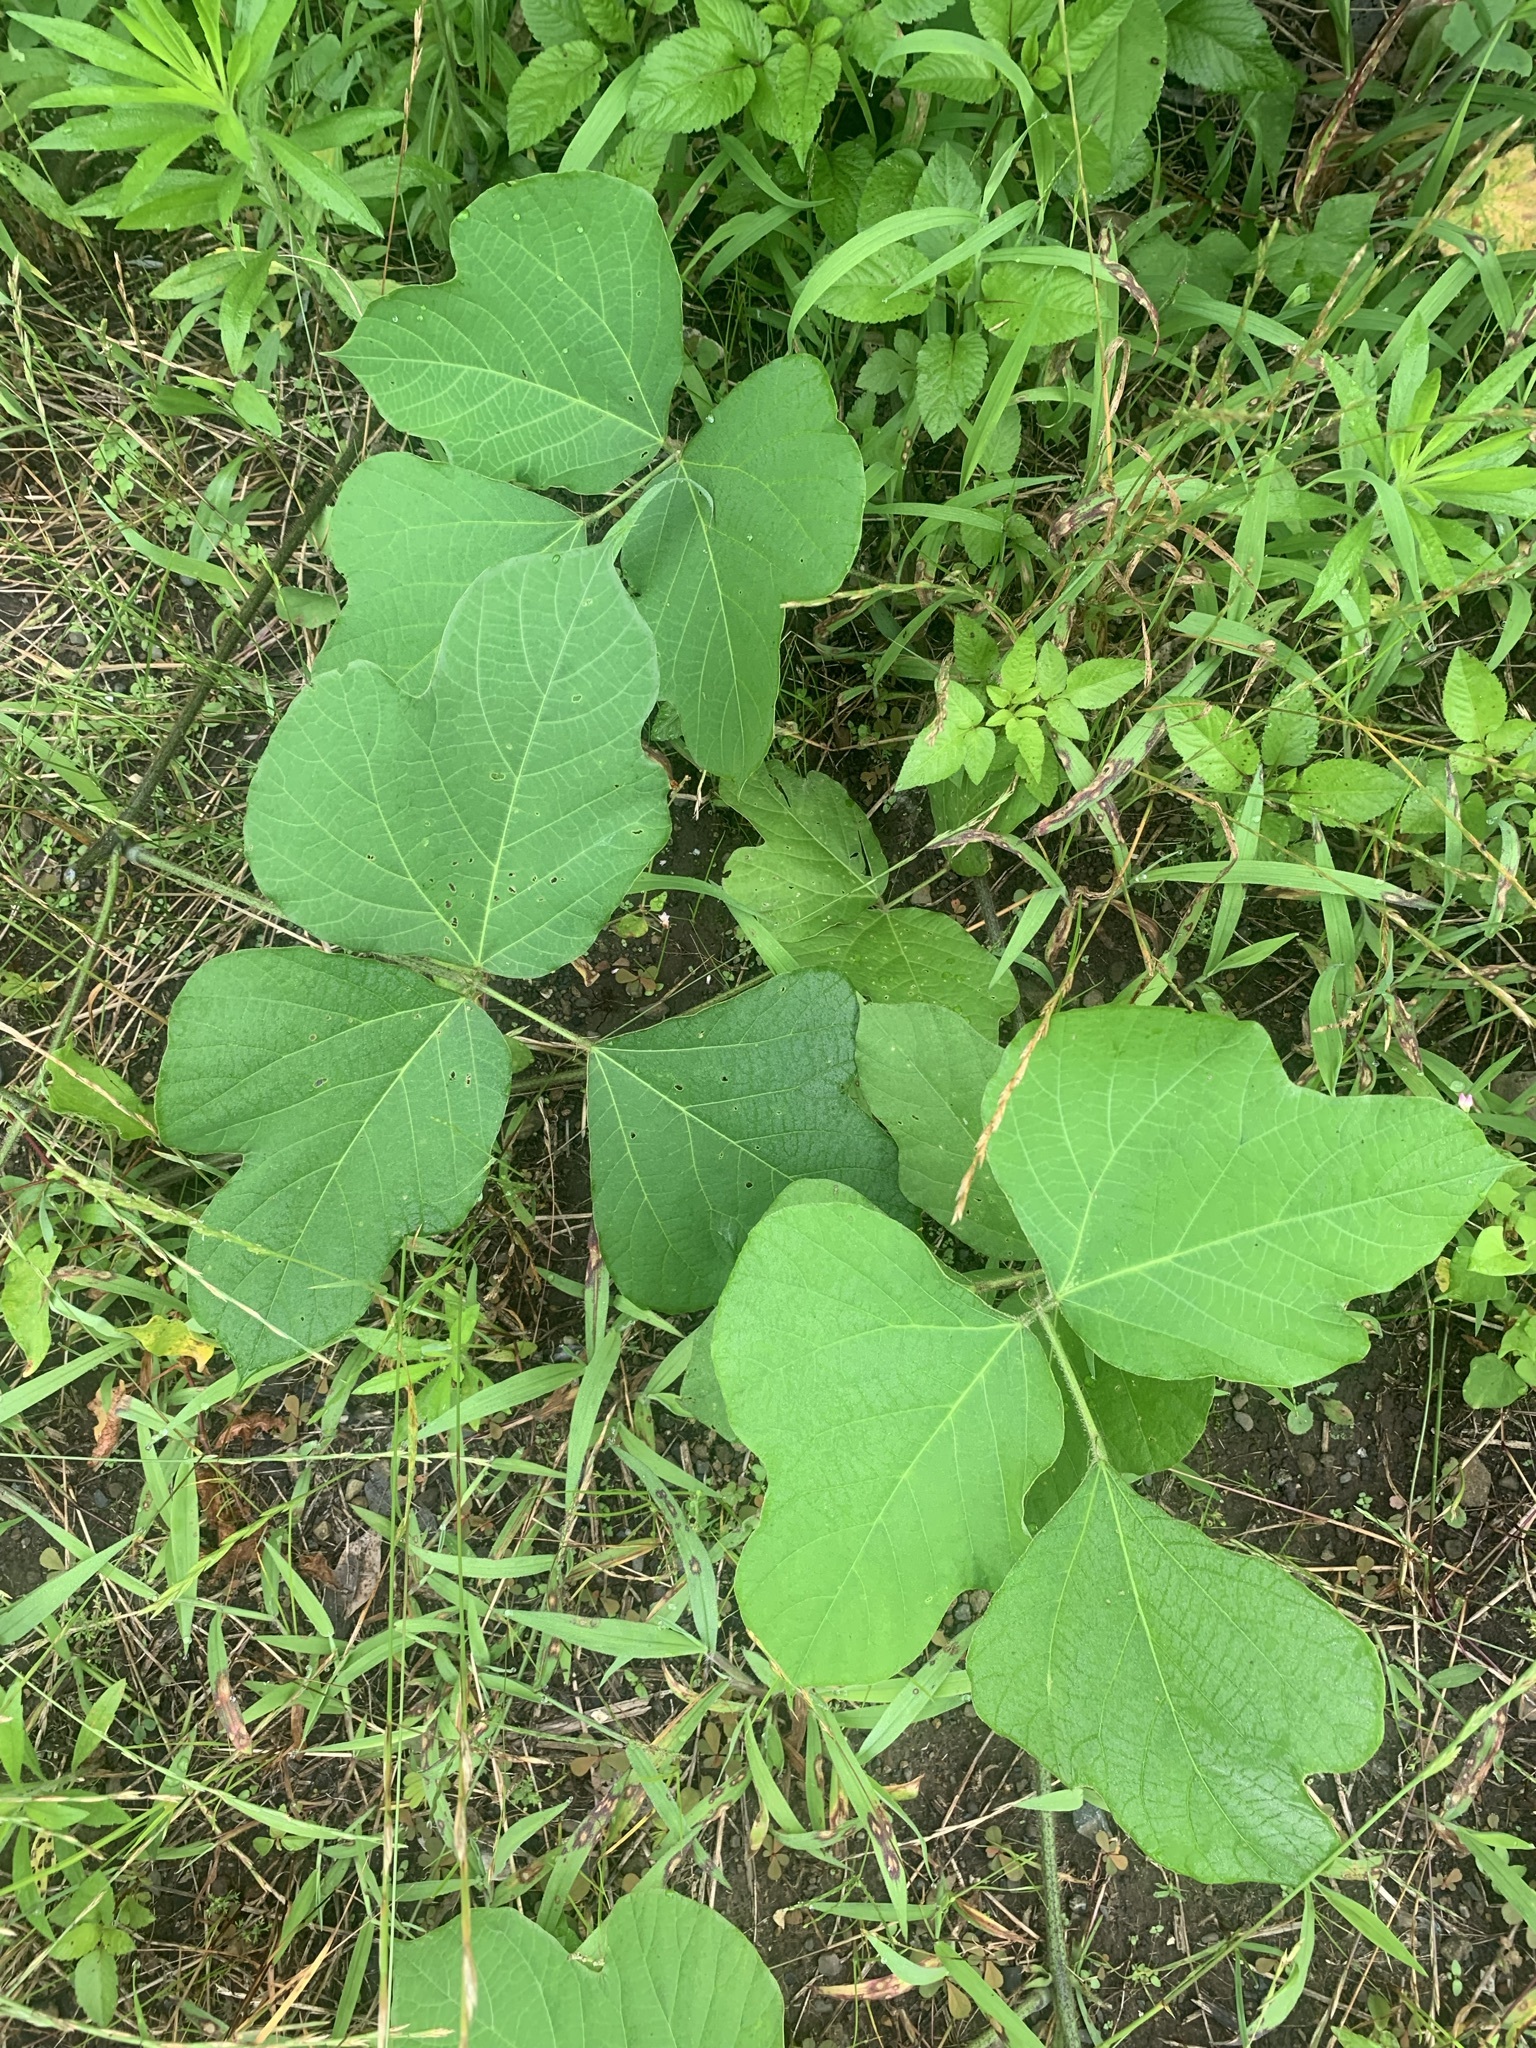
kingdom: Plantae
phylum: Tracheophyta
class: Magnoliopsida
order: Fabales
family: Fabaceae
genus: Pueraria
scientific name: Pueraria montana
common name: Kudzu
